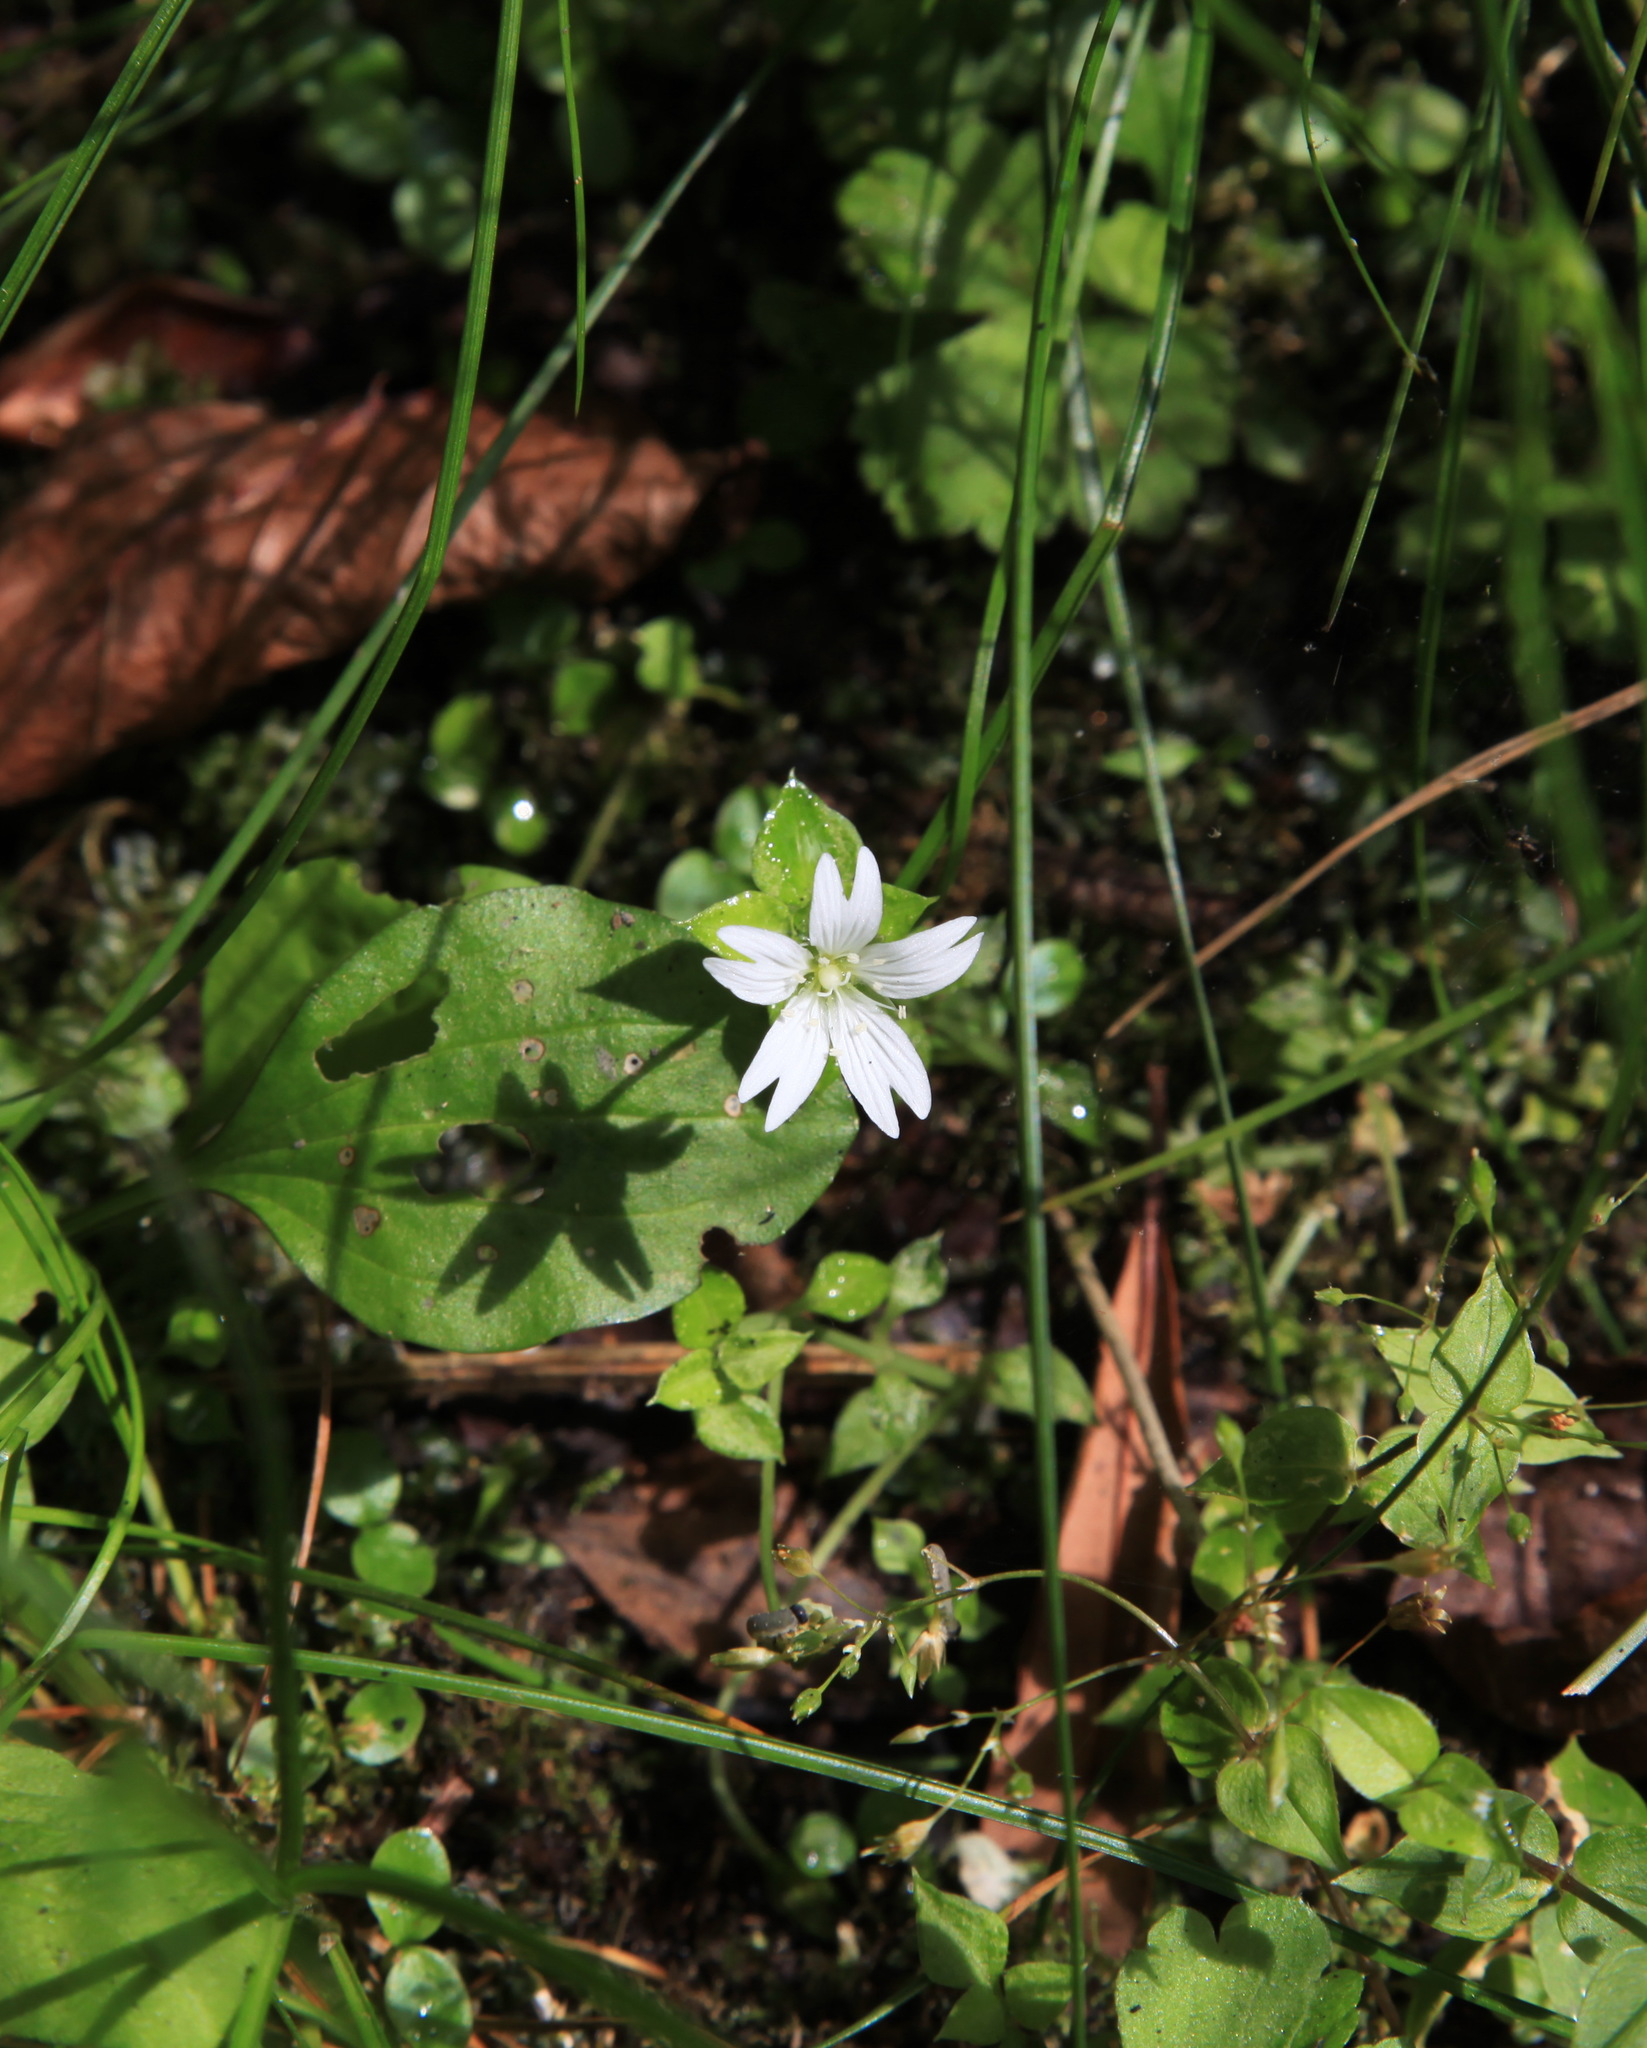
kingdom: Plantae
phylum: Tracheophyta
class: Magnoliopsida
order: Caryophyllales
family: Caryophyllaceae
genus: Nubelaria
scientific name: Nubelaria arisanensis
